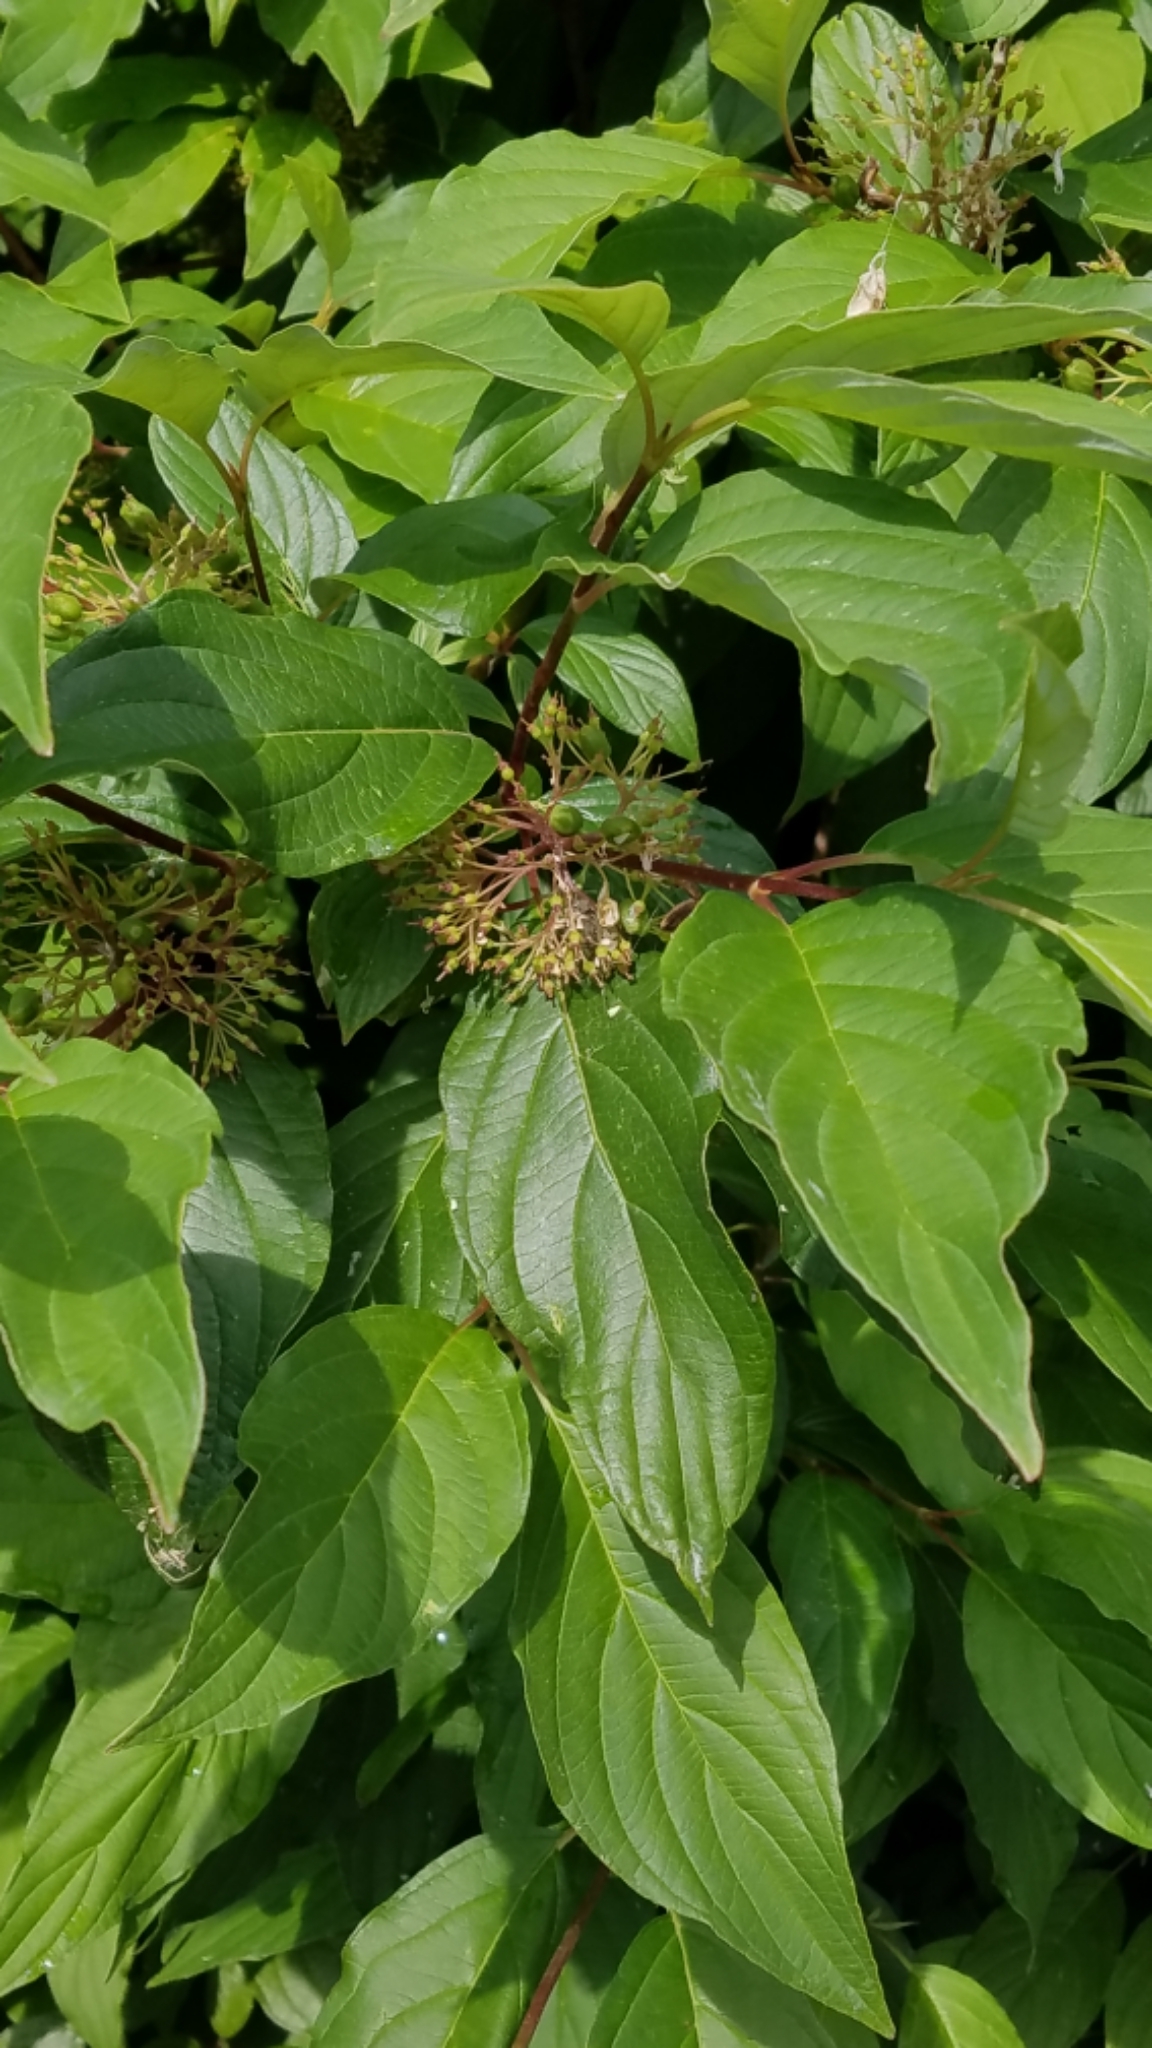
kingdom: Plantae
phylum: Tracheophyta
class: Magnoliopsida
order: Cornales
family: Cornaceae
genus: Cornus
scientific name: Cornus sericea
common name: Red-osier dogwood
